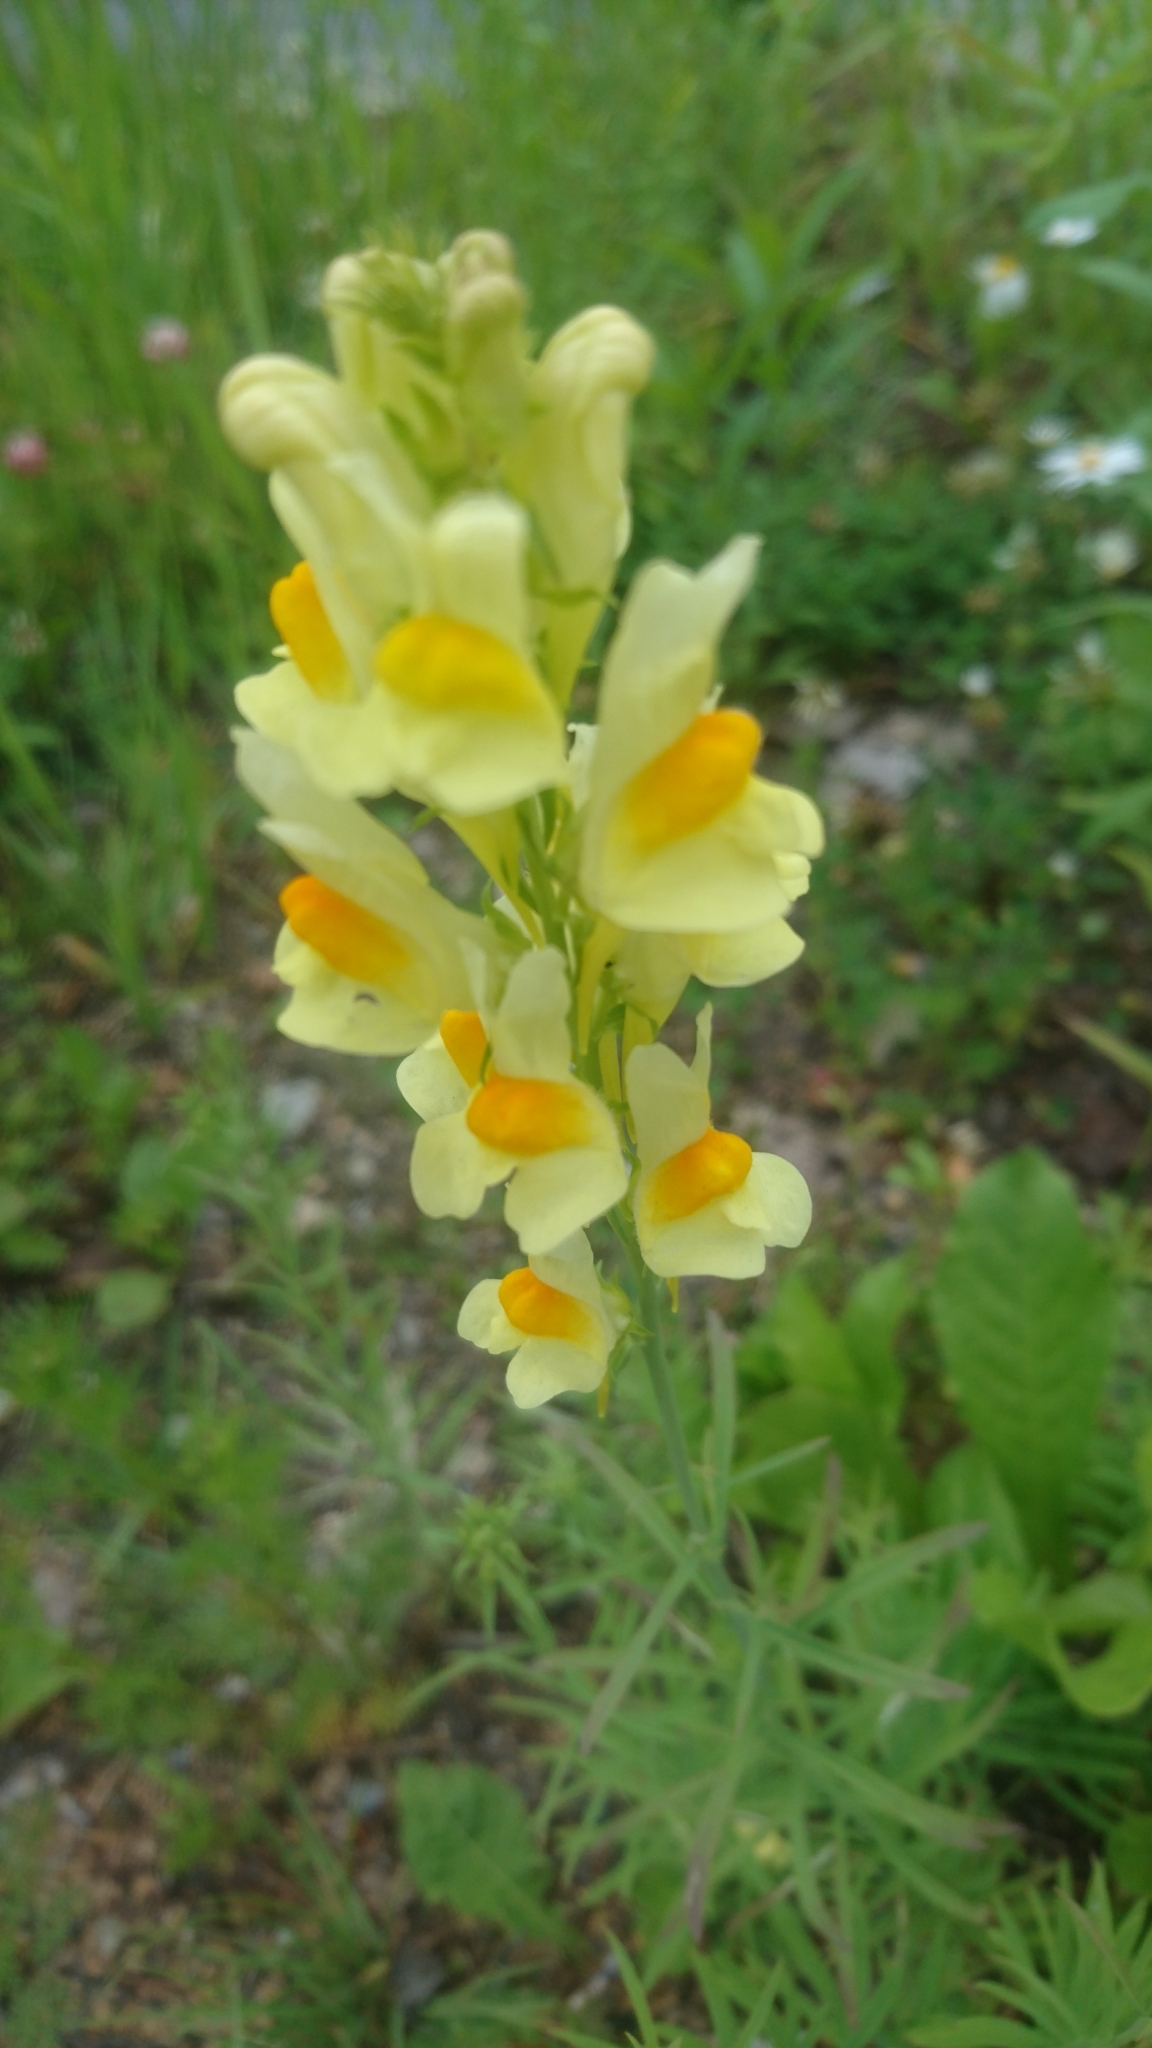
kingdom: Plantae
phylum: Tracheophyta
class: Magnoliopsida
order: Lamiales
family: Plantaginaceae
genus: Linaria
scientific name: Linaria vulgaris
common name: Butter and eggs
